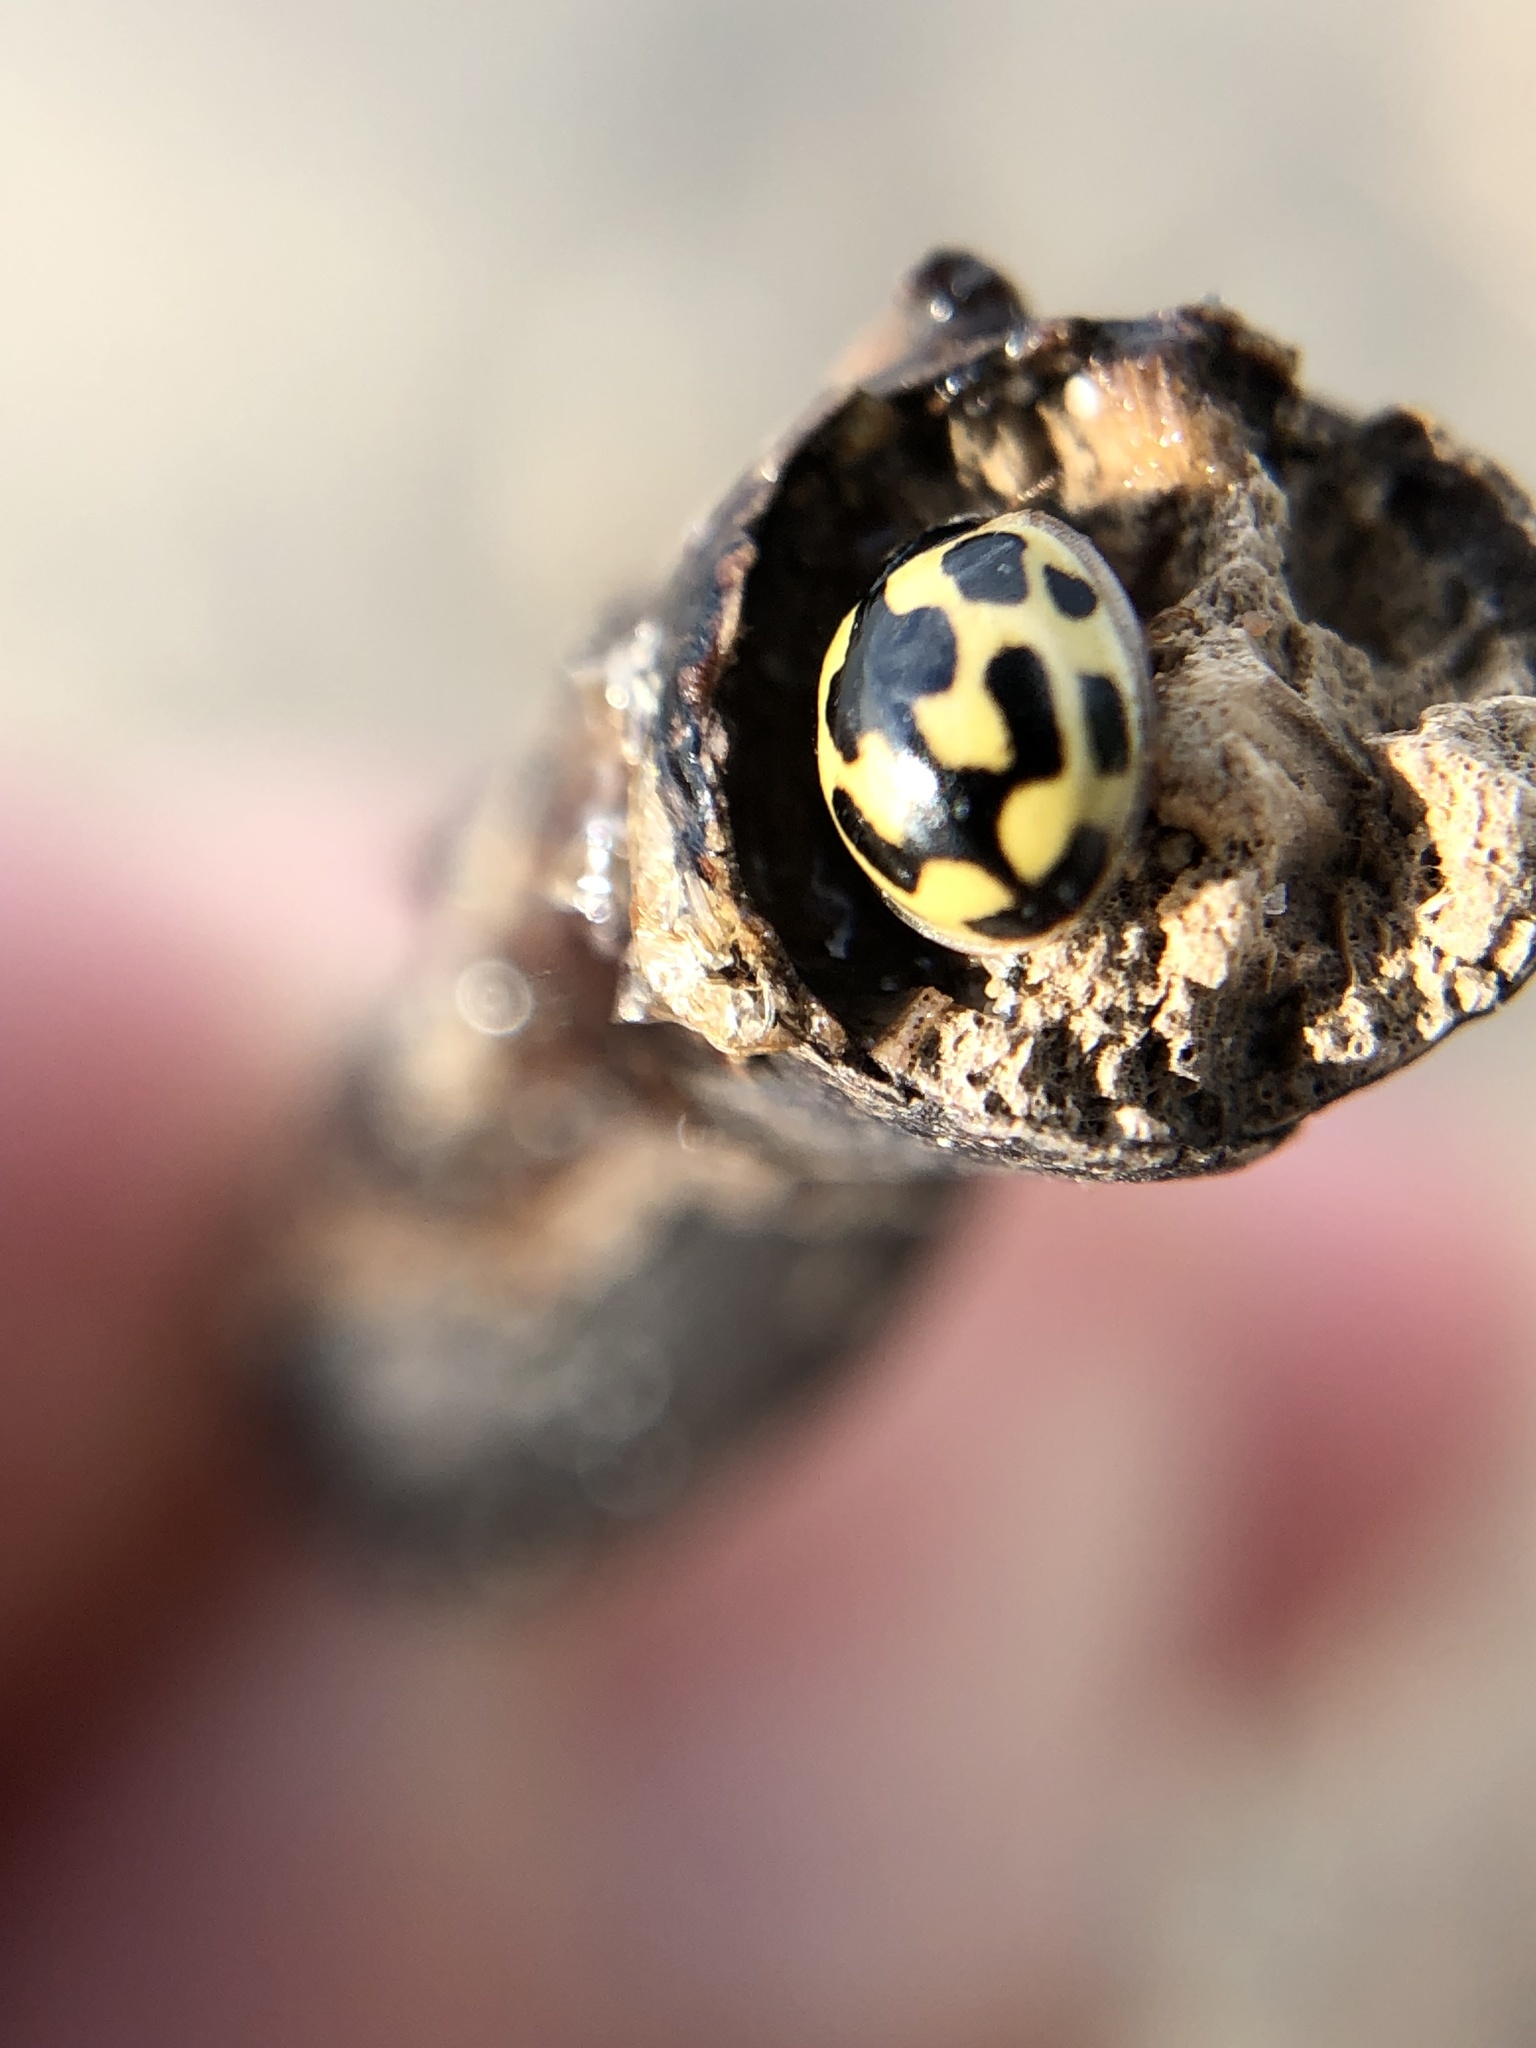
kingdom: Animalia
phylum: Arthropoda
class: Insecta
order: Coleoptera
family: Coccinellidae
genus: Propylaea
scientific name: Propylaea quatuordecimpunctata
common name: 14-spotted ladybird beetle
